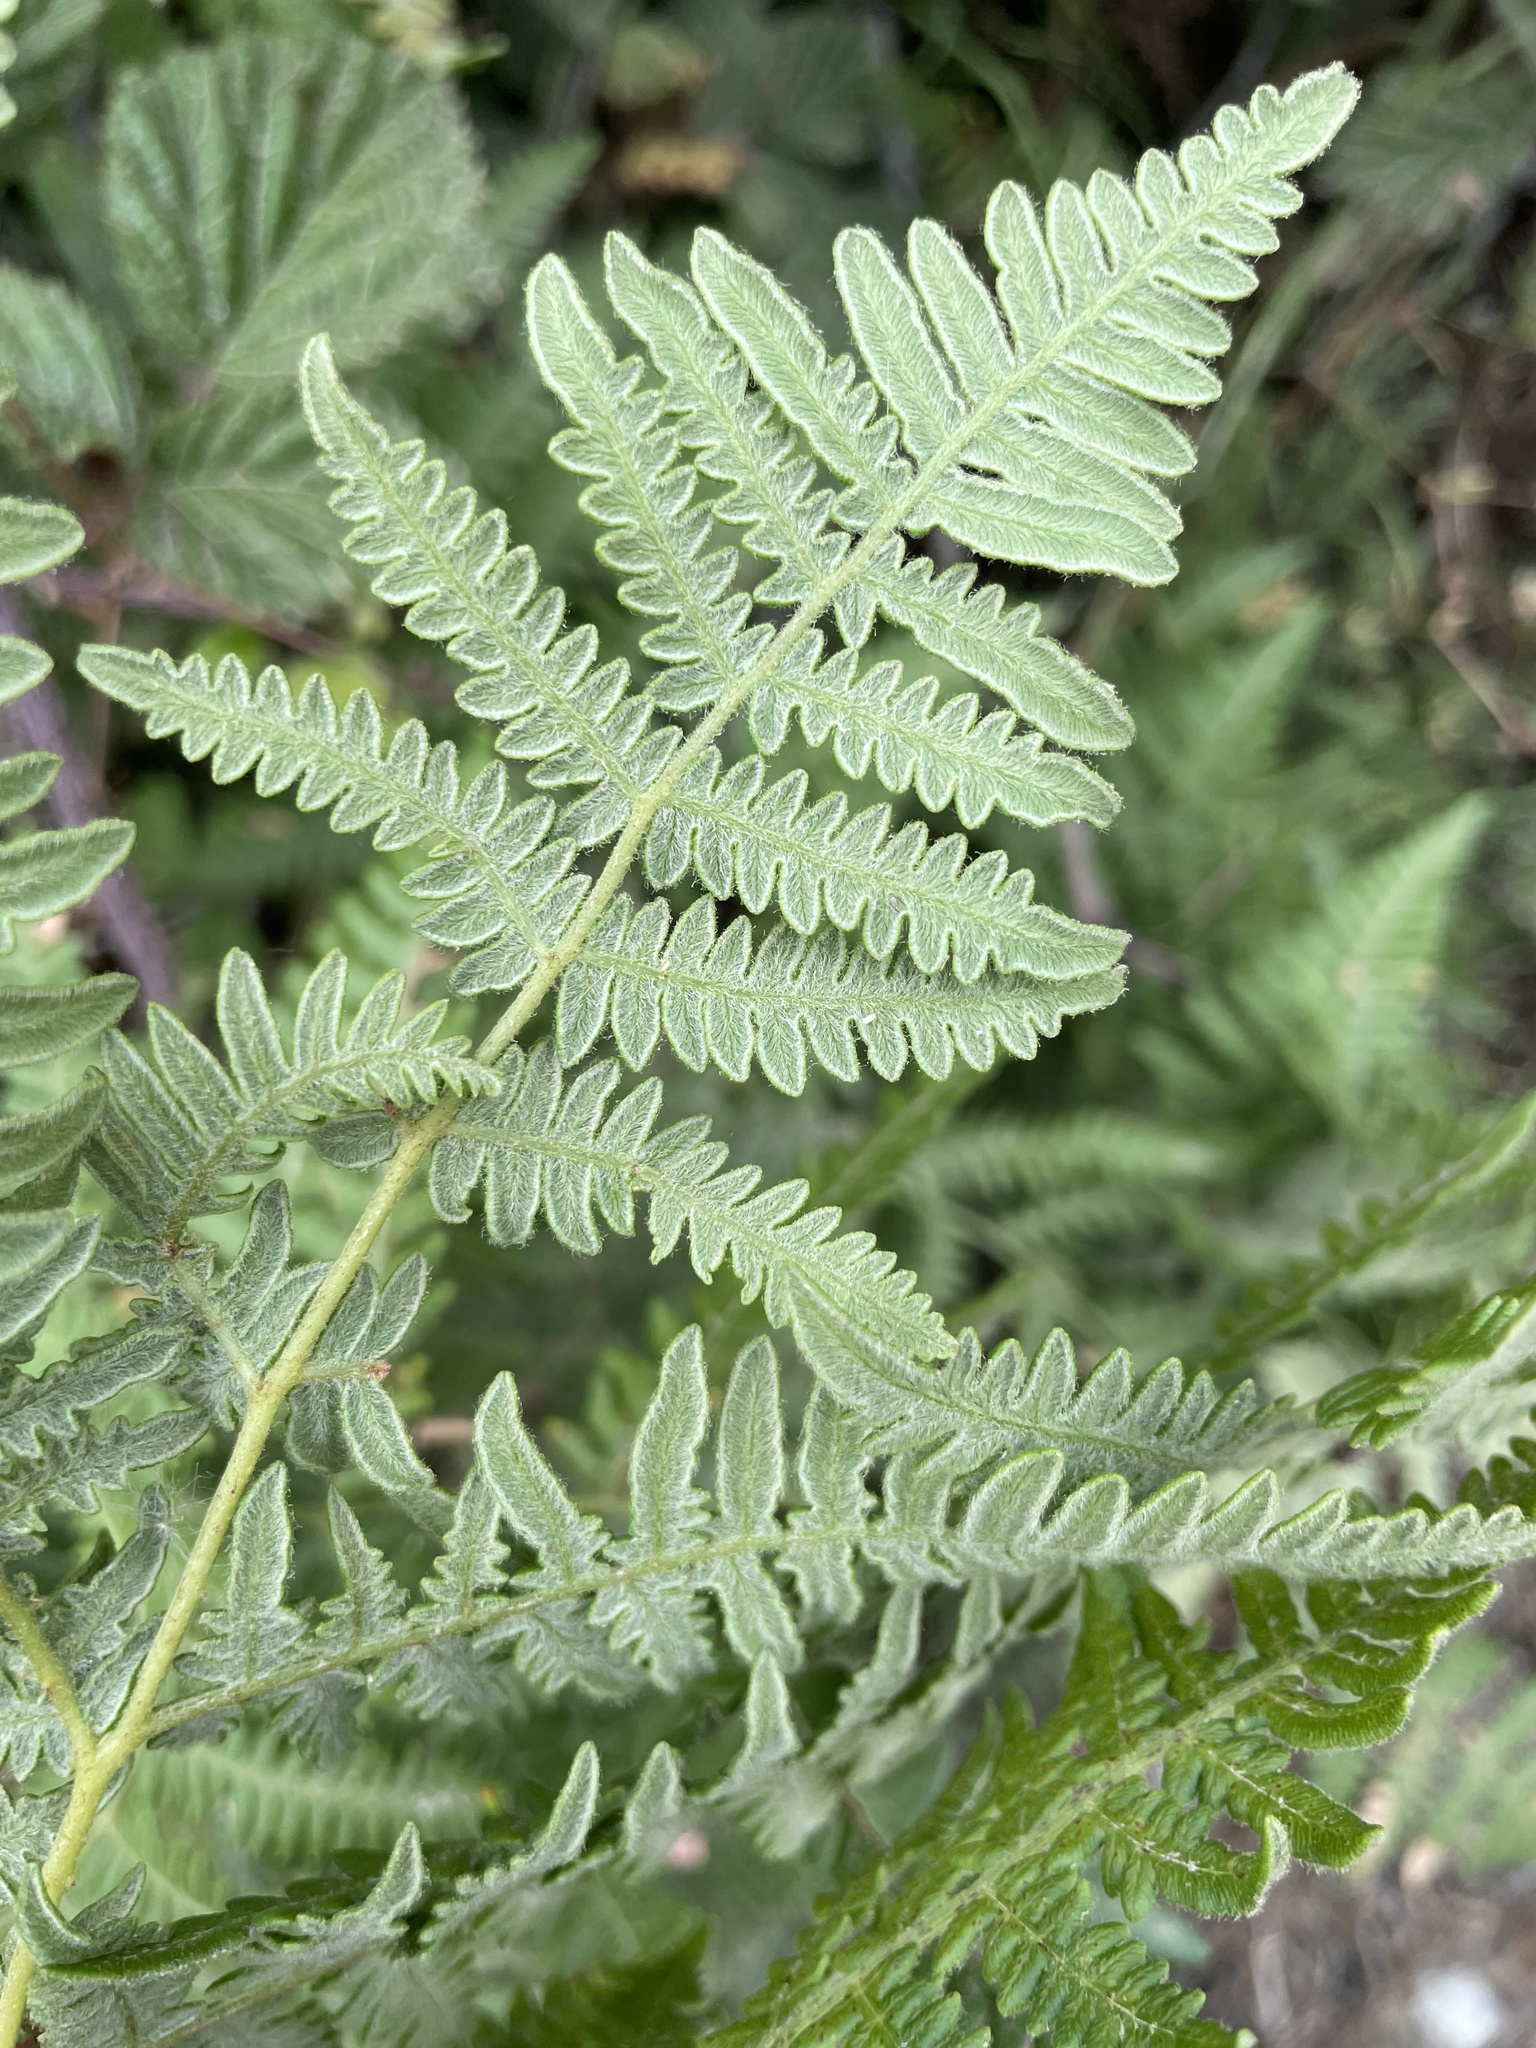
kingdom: Plantae
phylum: Tracheophyta
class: Polypodiopsida
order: Polypodiales
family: Dennstaedtiaceae
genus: Pteridium
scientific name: Pteridium aquilinum
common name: Bracken
